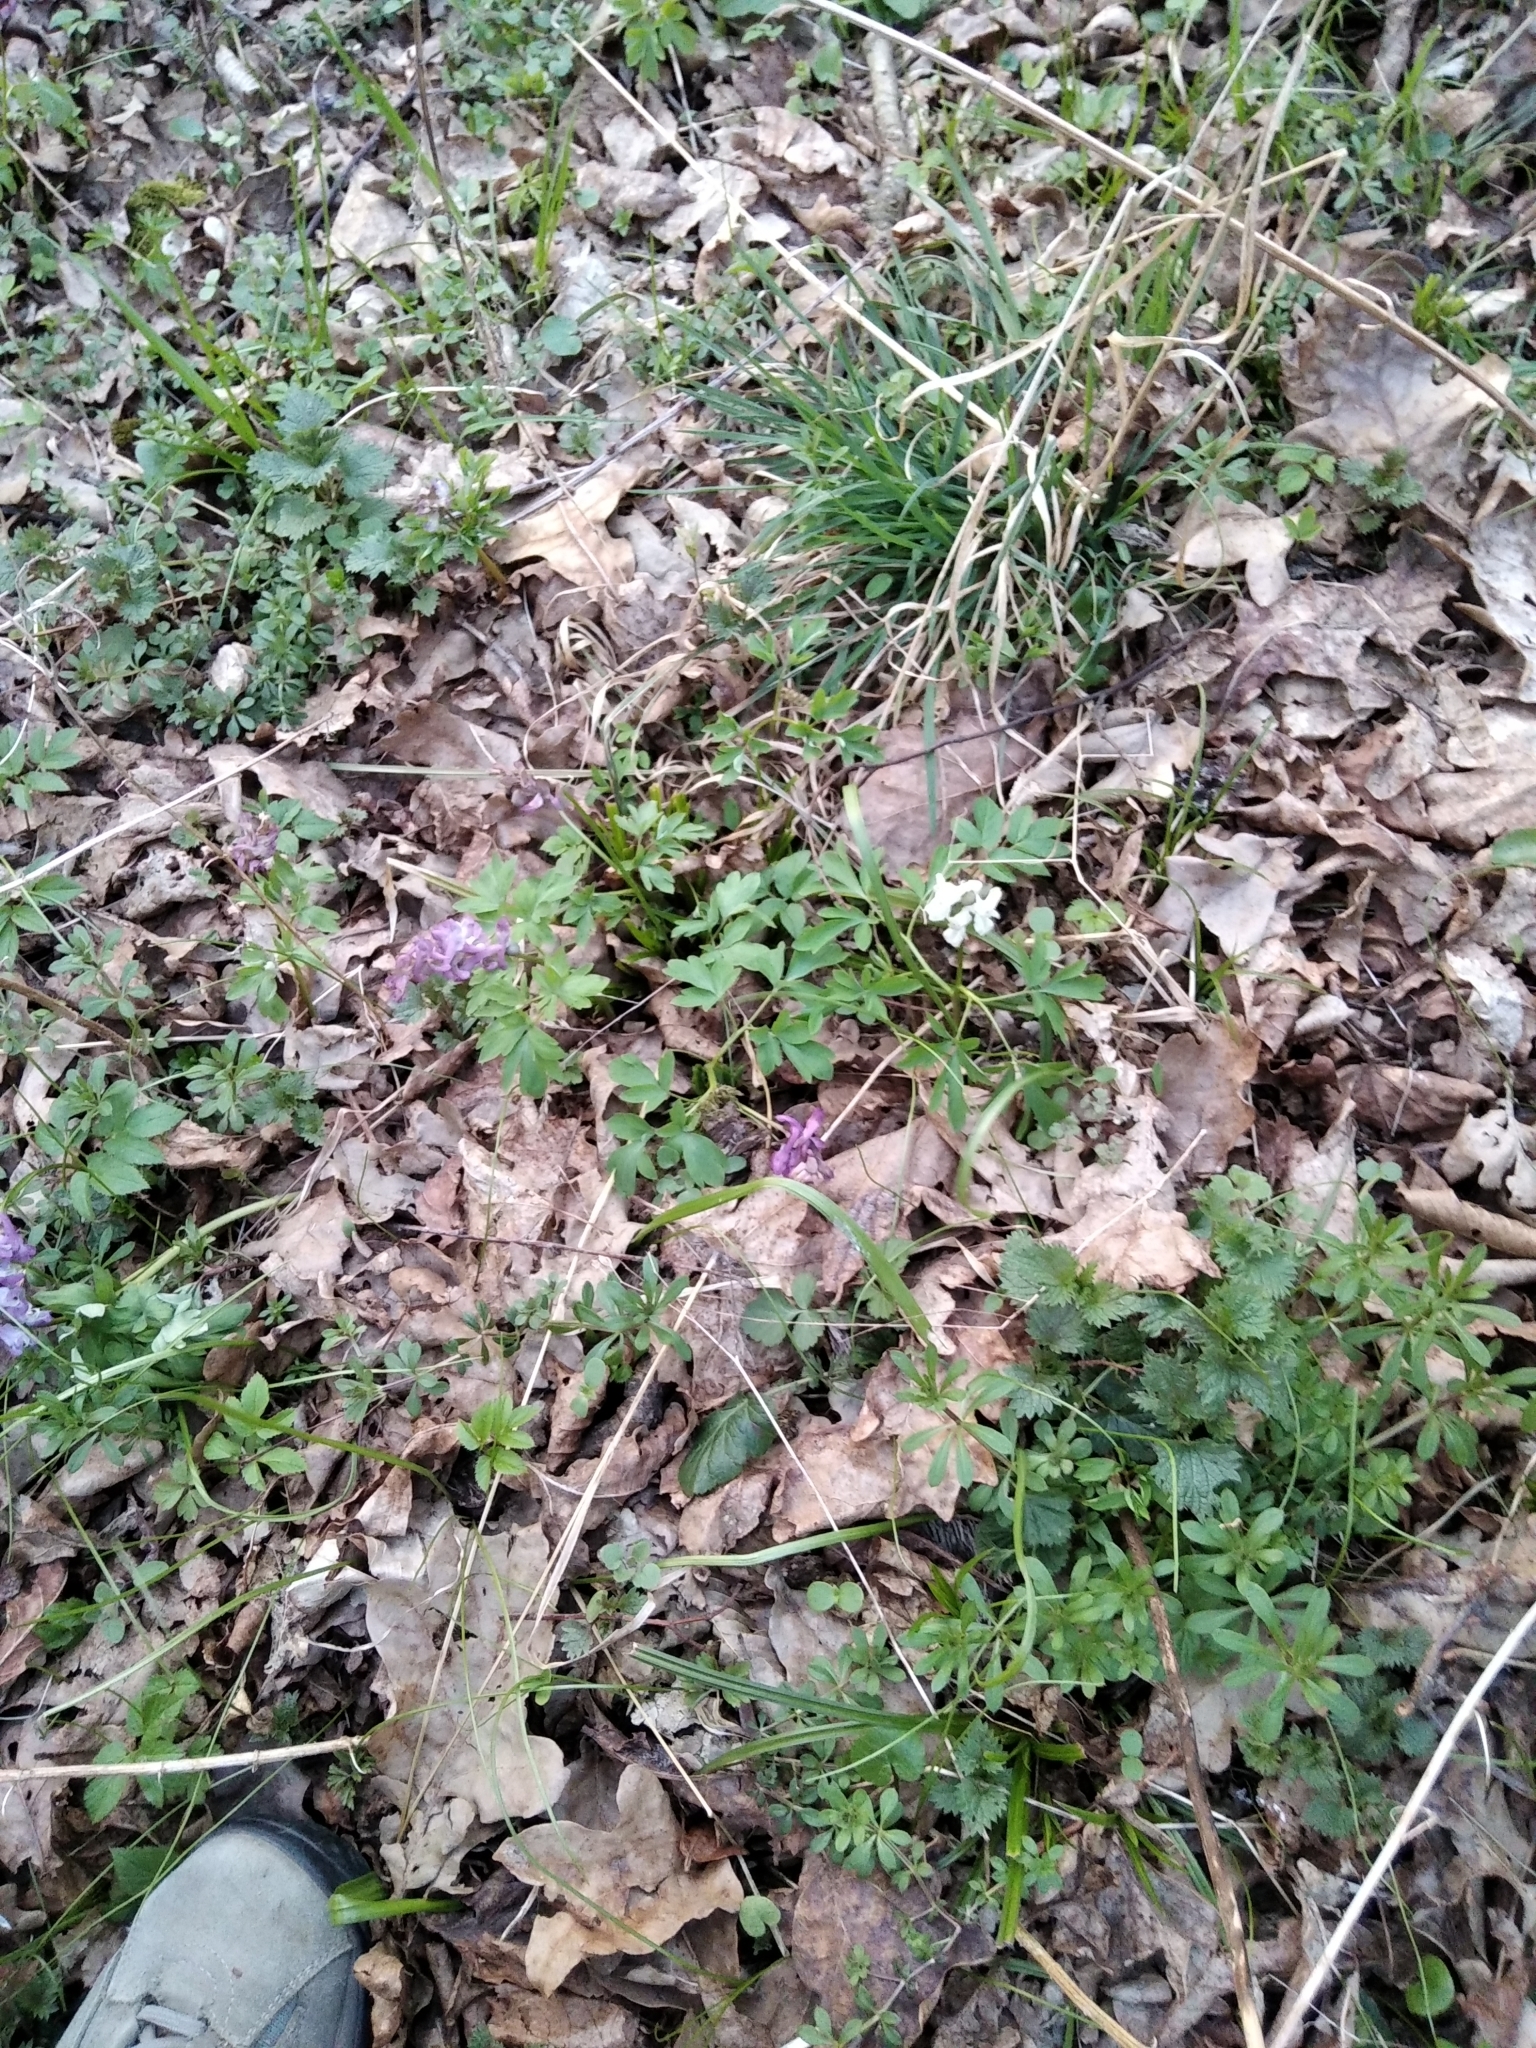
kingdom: Plantae
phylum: Tracheophyta
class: Magnoliopsida
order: Ranunculales
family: Papaveraceae
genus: Corydalis
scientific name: Corydalis cava
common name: Hollowroot
